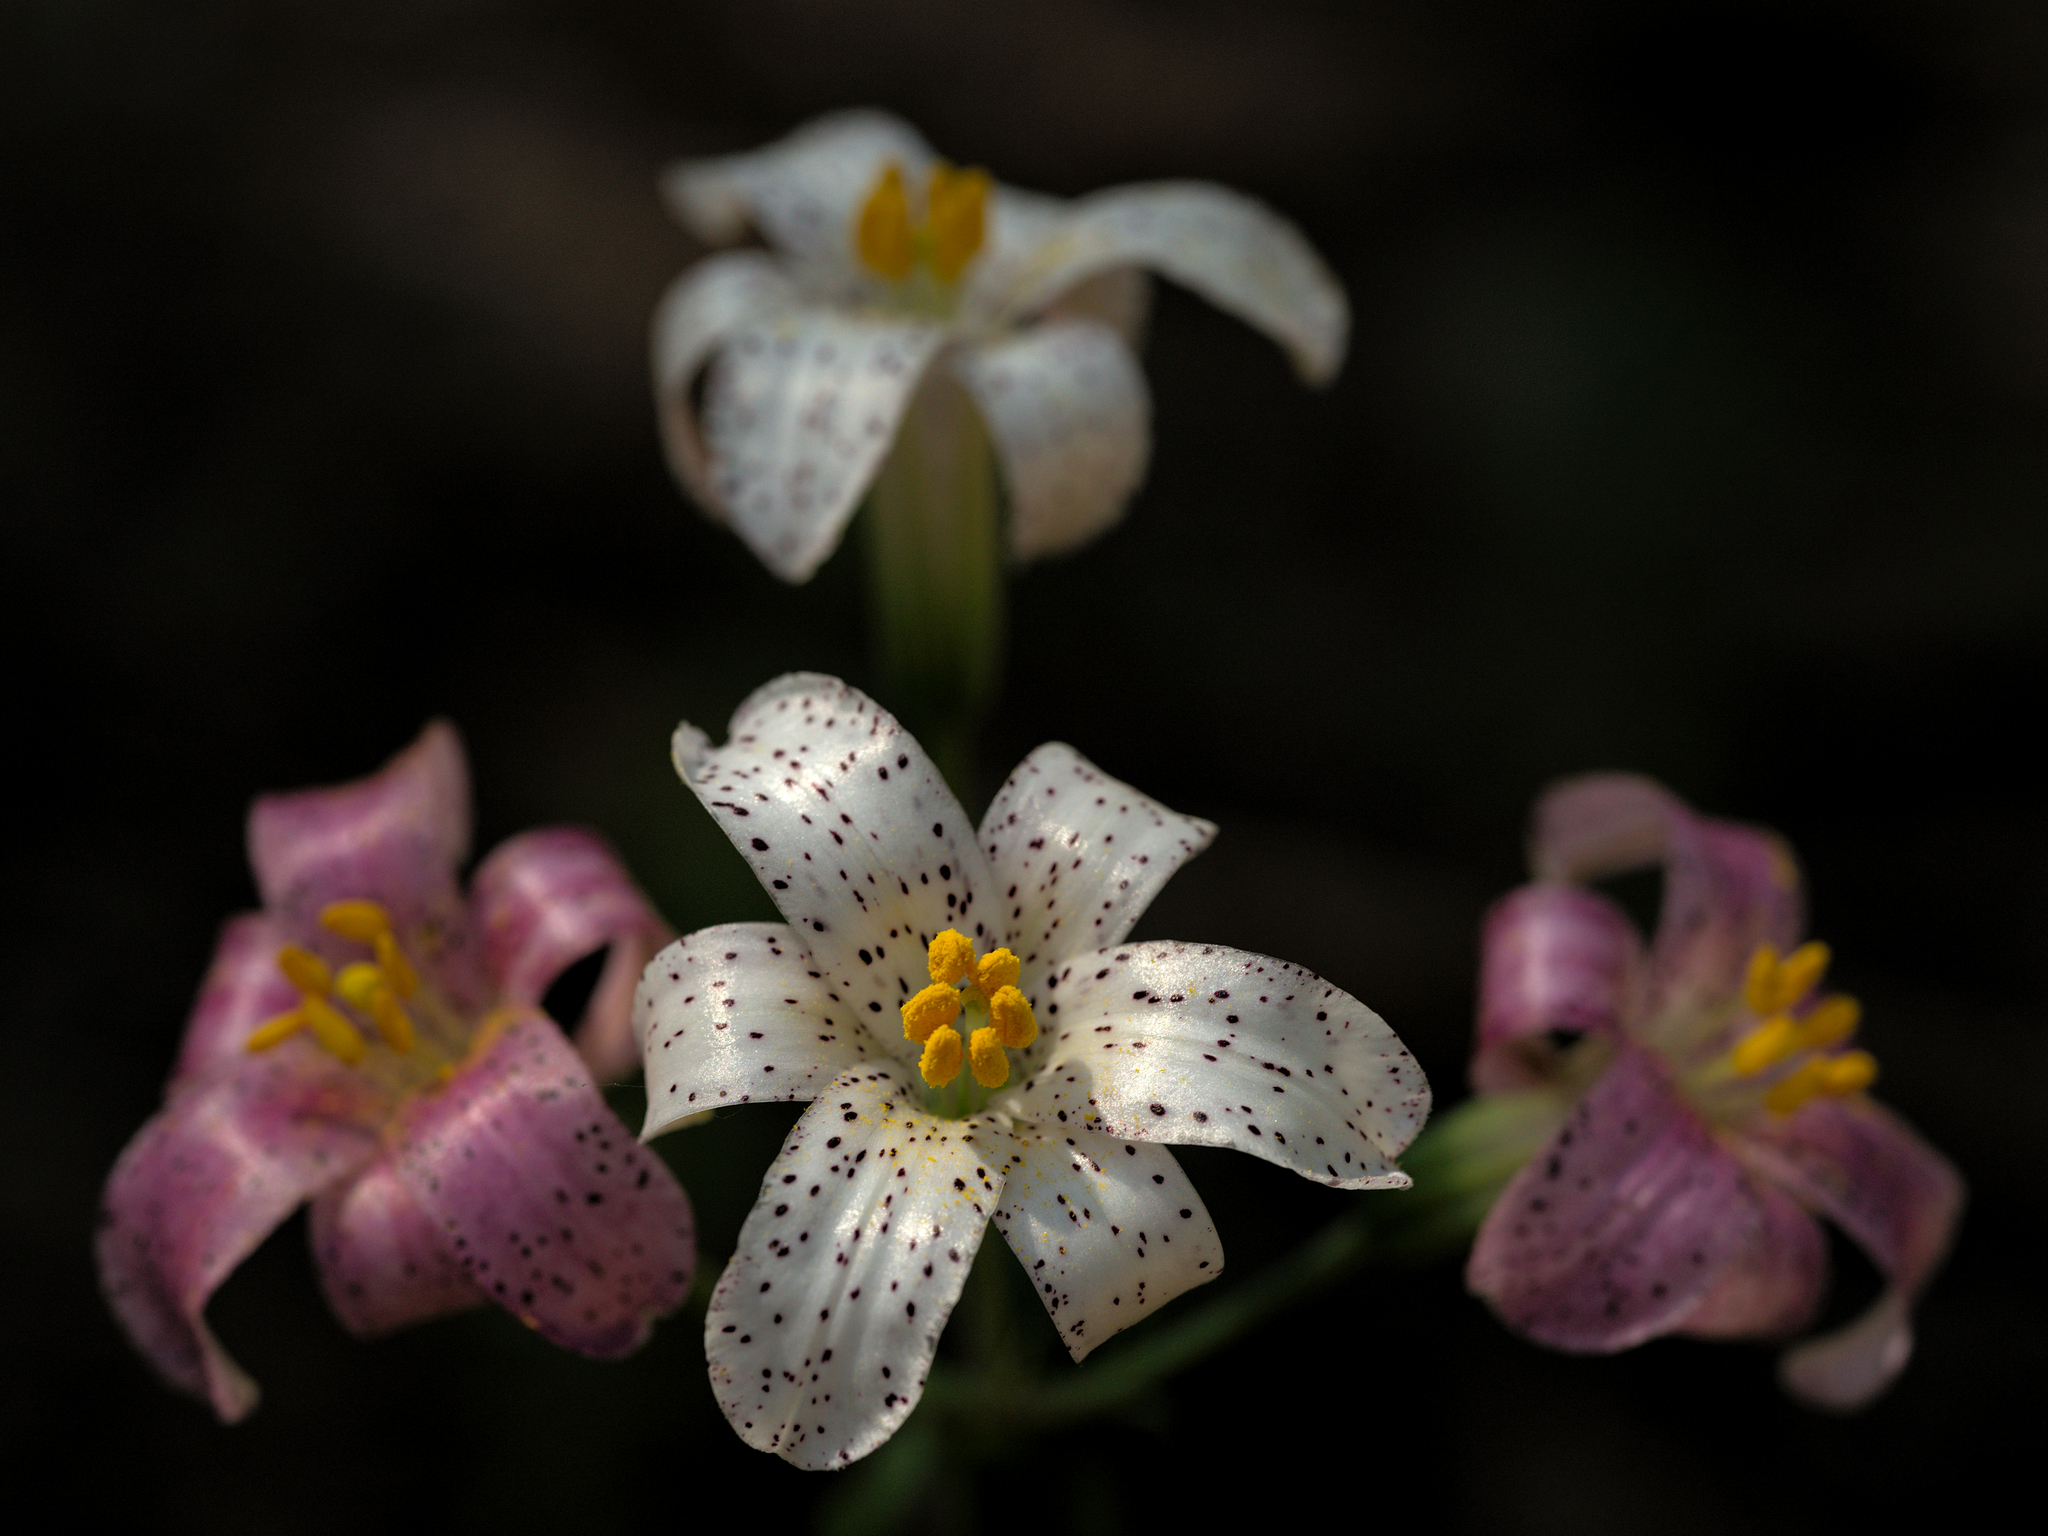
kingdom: Plantae
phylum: Tracheophyta
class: Liliopsida
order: Liliales
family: Liliaceae
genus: Lilium
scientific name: Lilium rubescens
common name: Chamise lily
